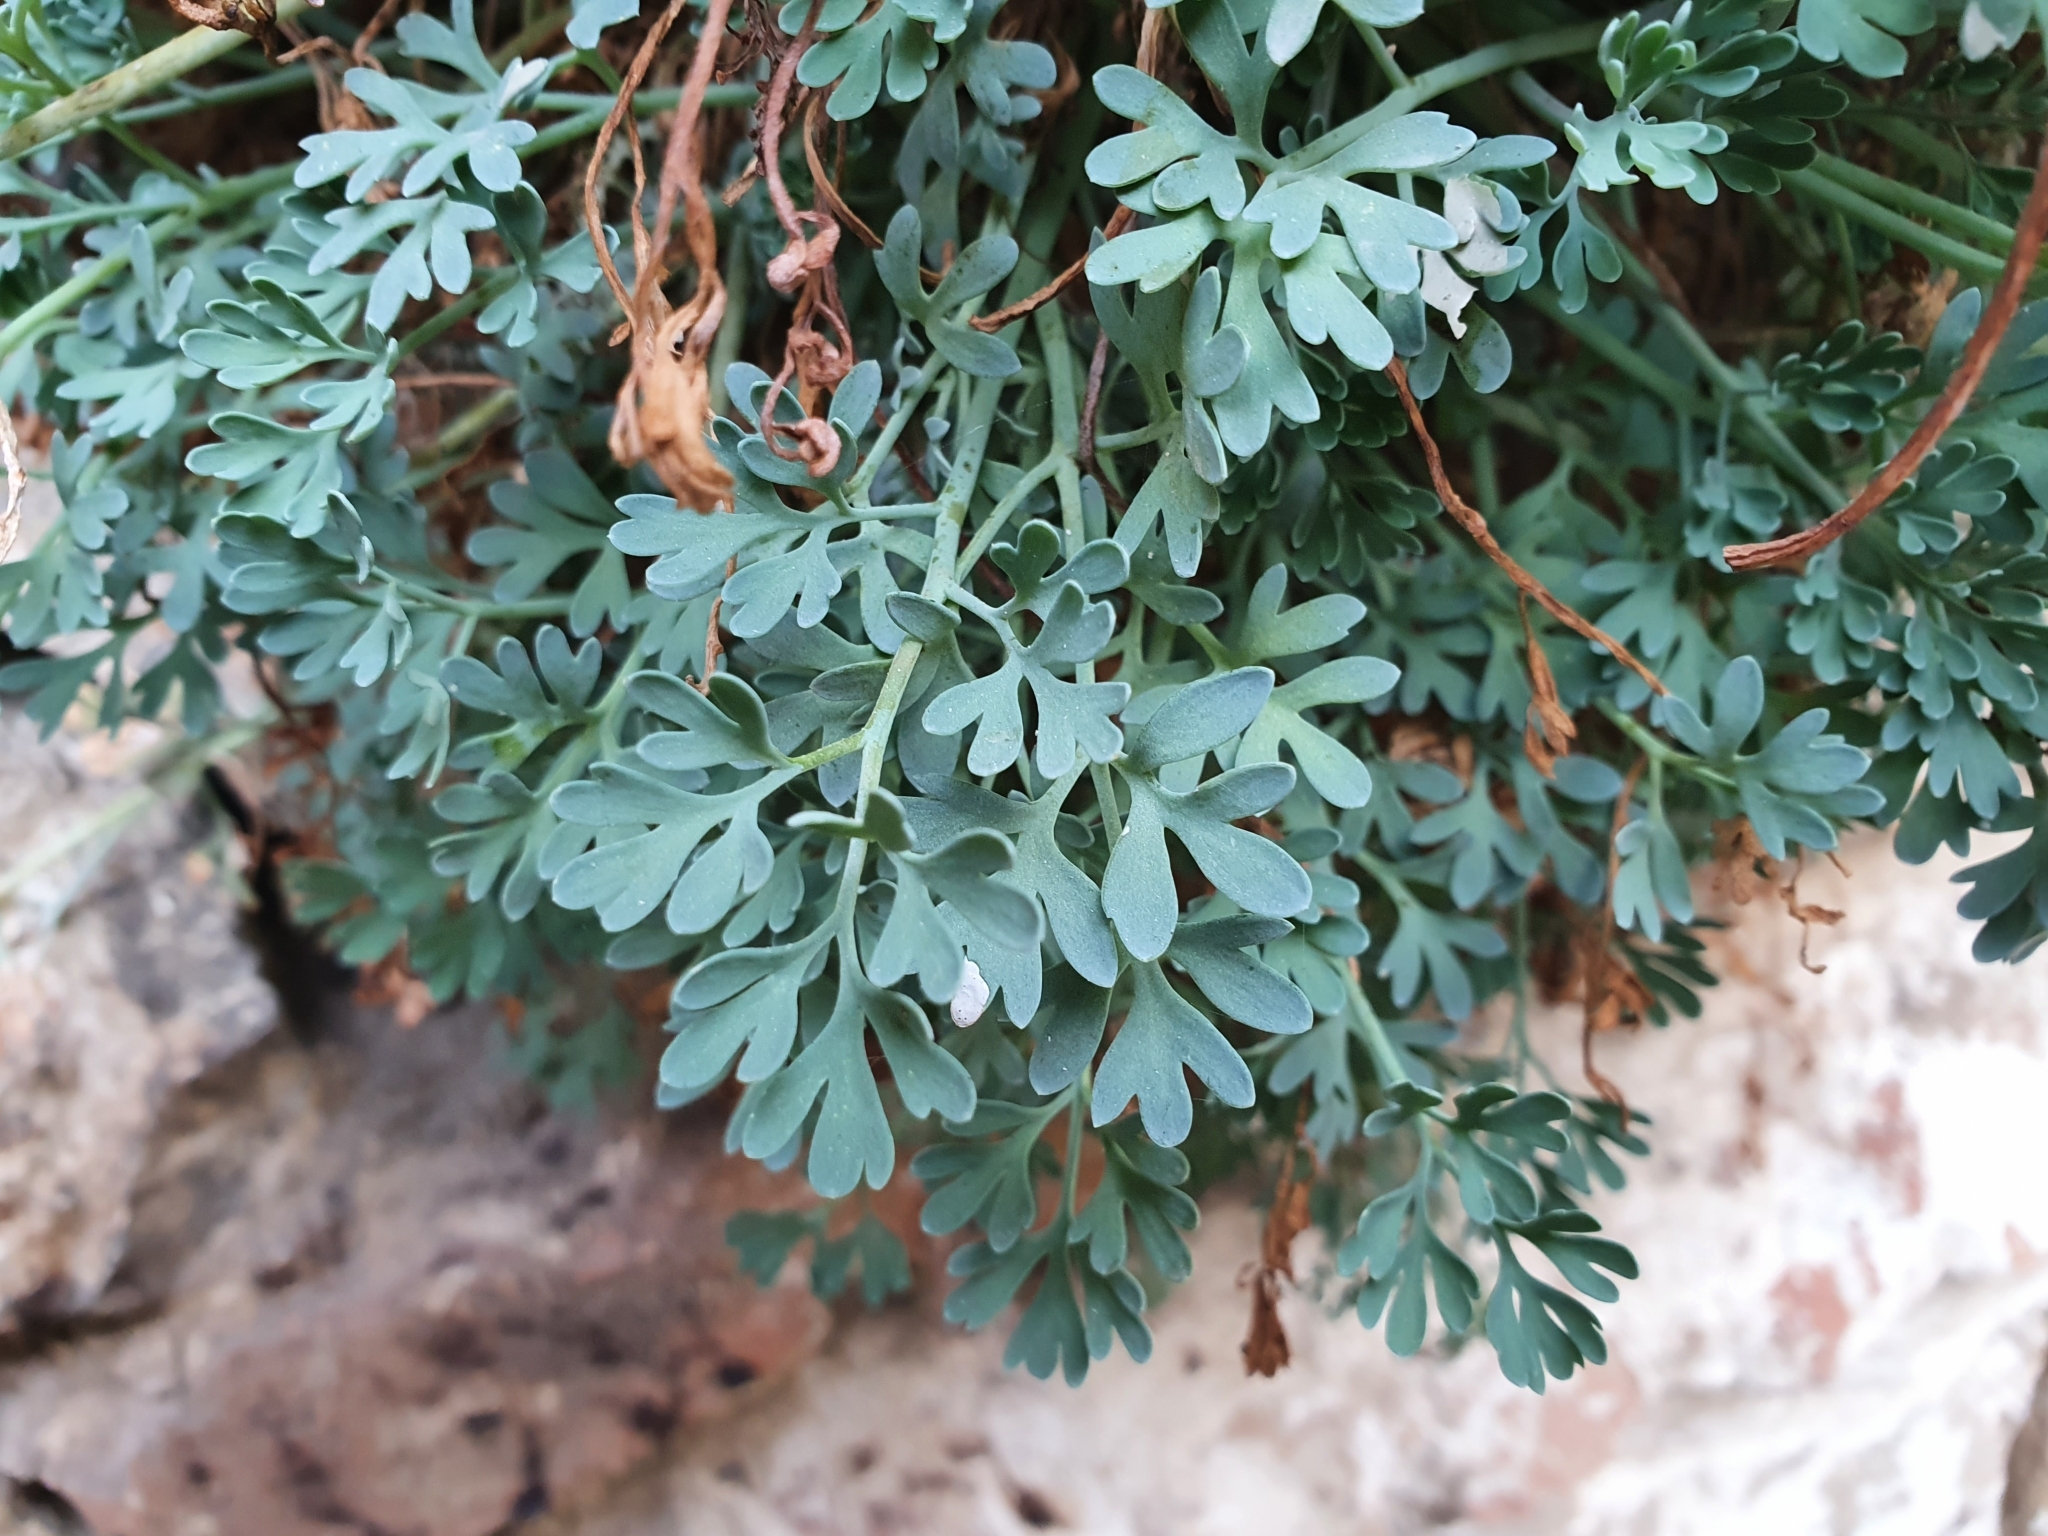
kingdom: Plantae
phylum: Tracheophyta
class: Magnoliopsida
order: Ranunculales
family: Papaveraceae
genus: Rupicapnos
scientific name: Rupicapnos numidica
